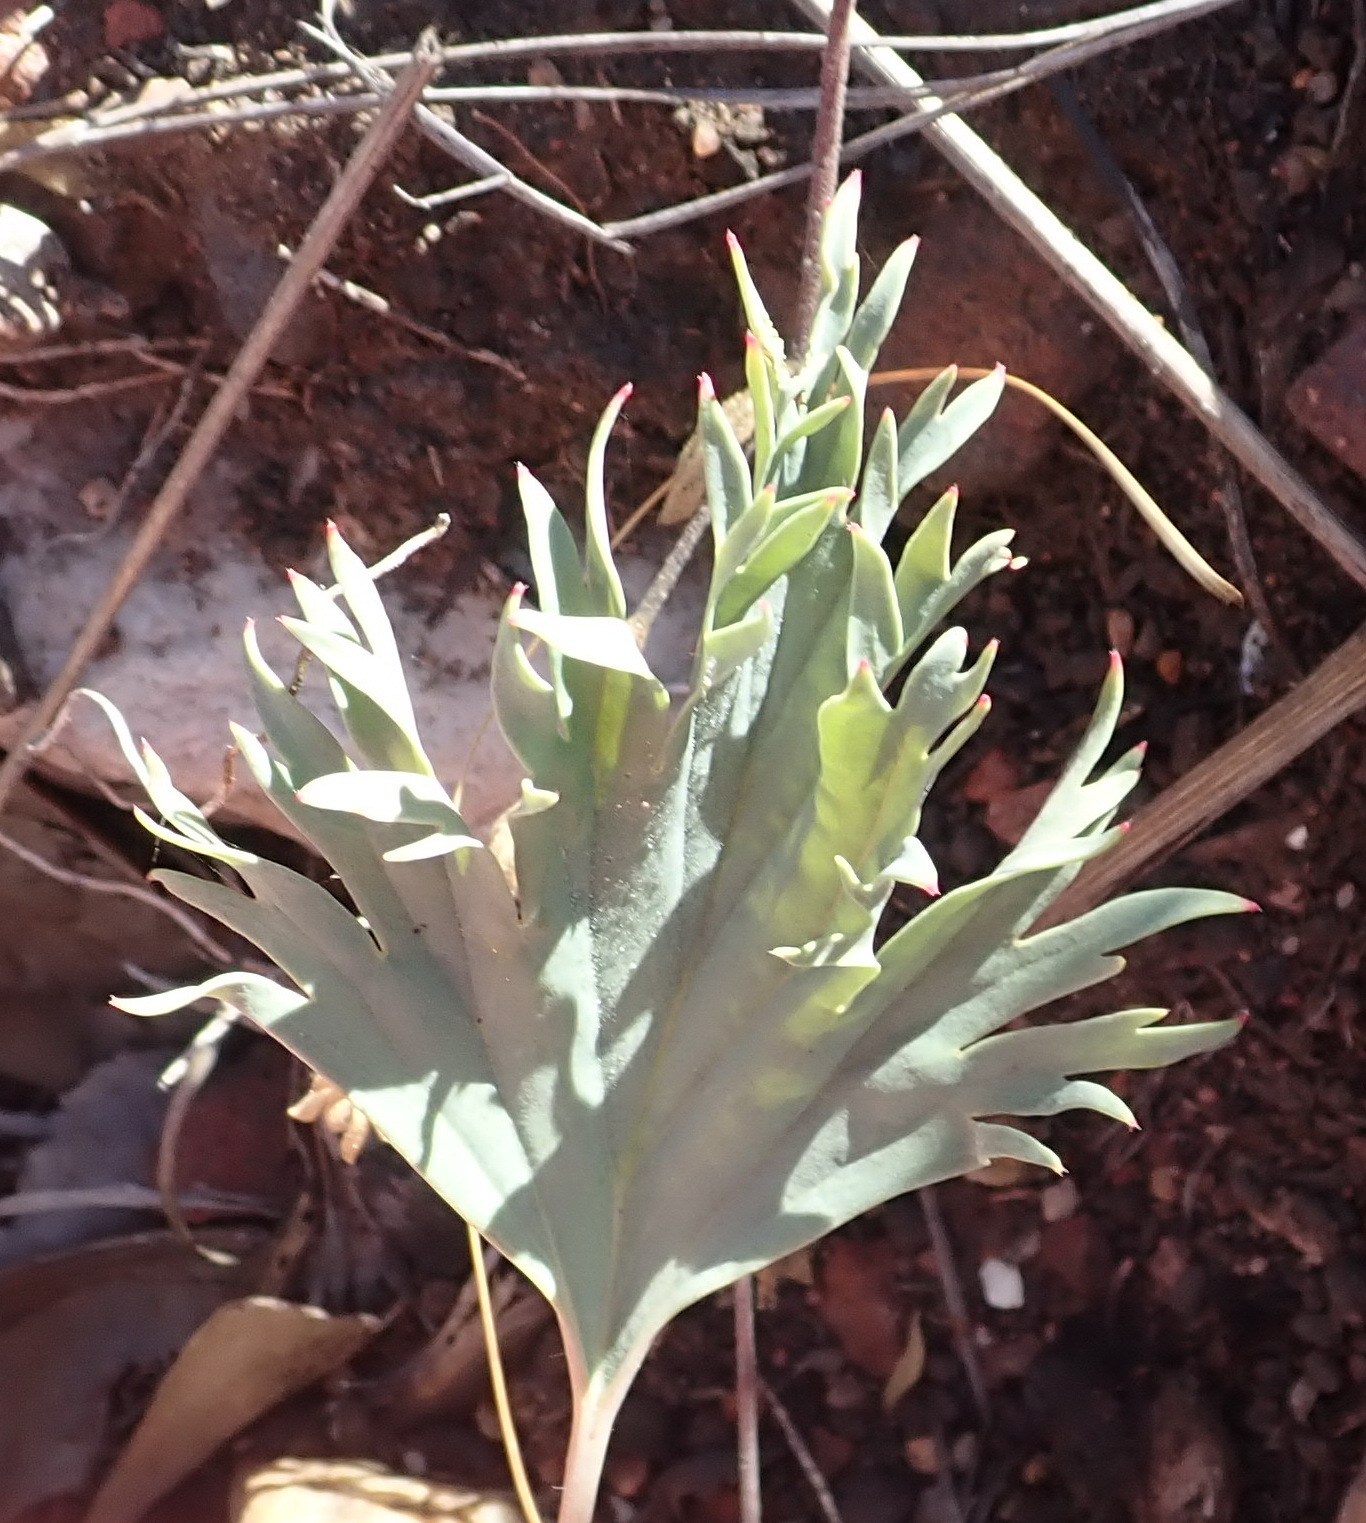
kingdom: Plantae
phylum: Tracheophyta
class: Magnoliopsida
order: Geraniales
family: Geraniaceae
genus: Pelargonium
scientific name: Pelargonium pillansii
